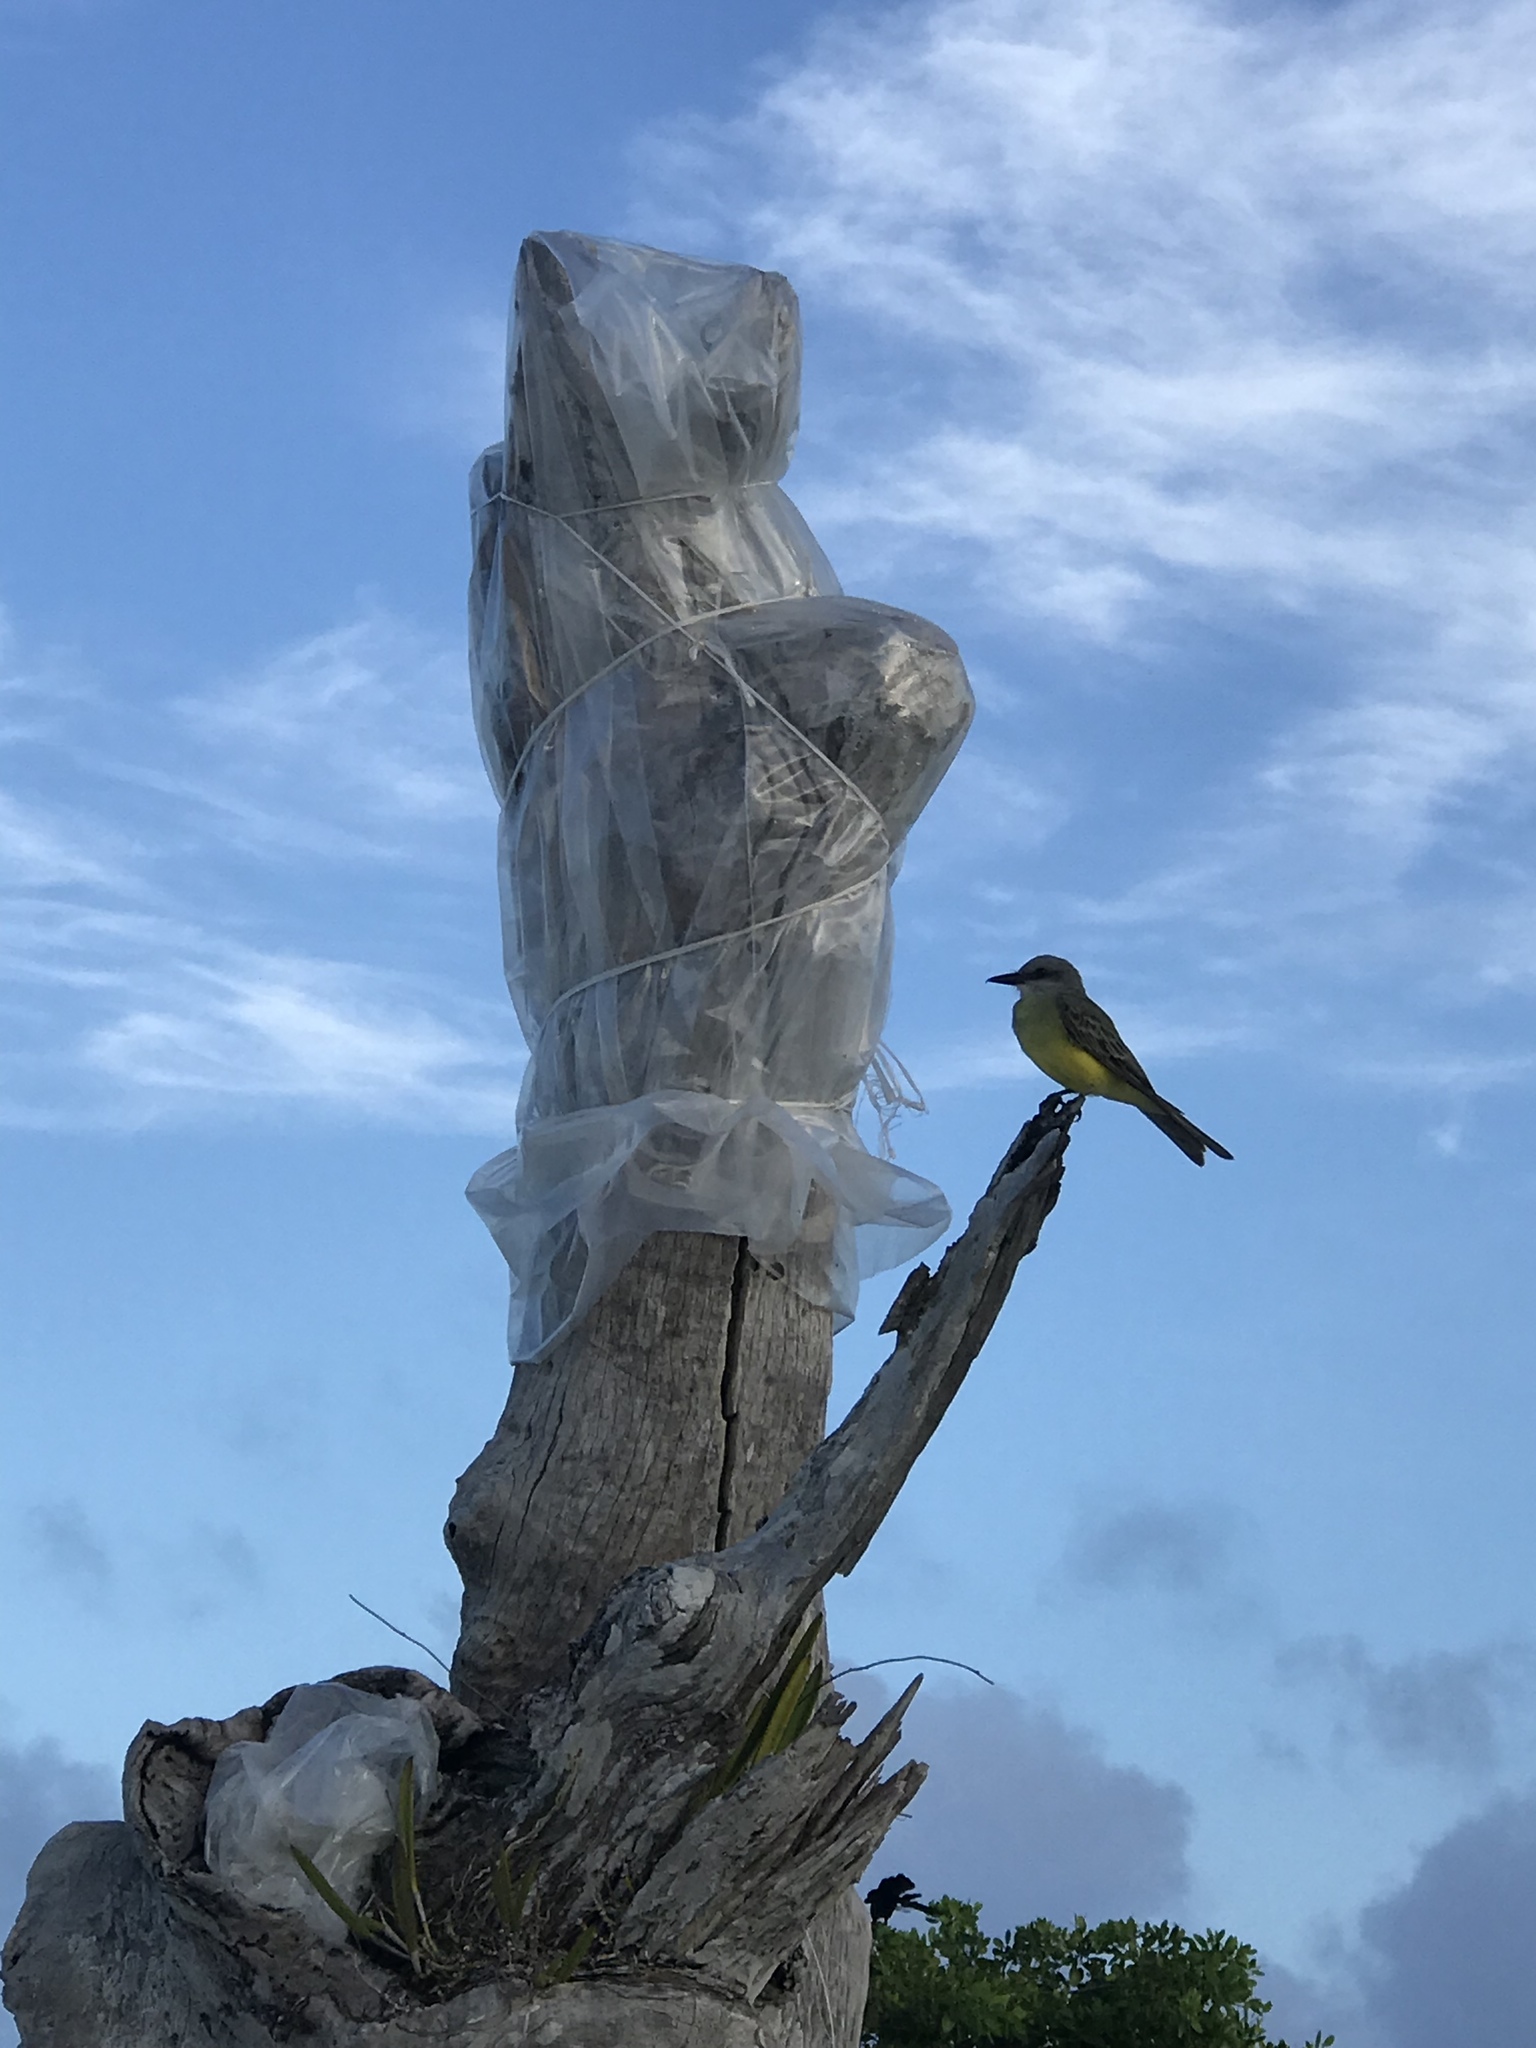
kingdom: Animalia
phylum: Chordata
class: Aves
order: Passeriformes
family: Tyrannidae
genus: Tyrannus
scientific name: Tyrannus melancholicus
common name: Tropical kingbird
